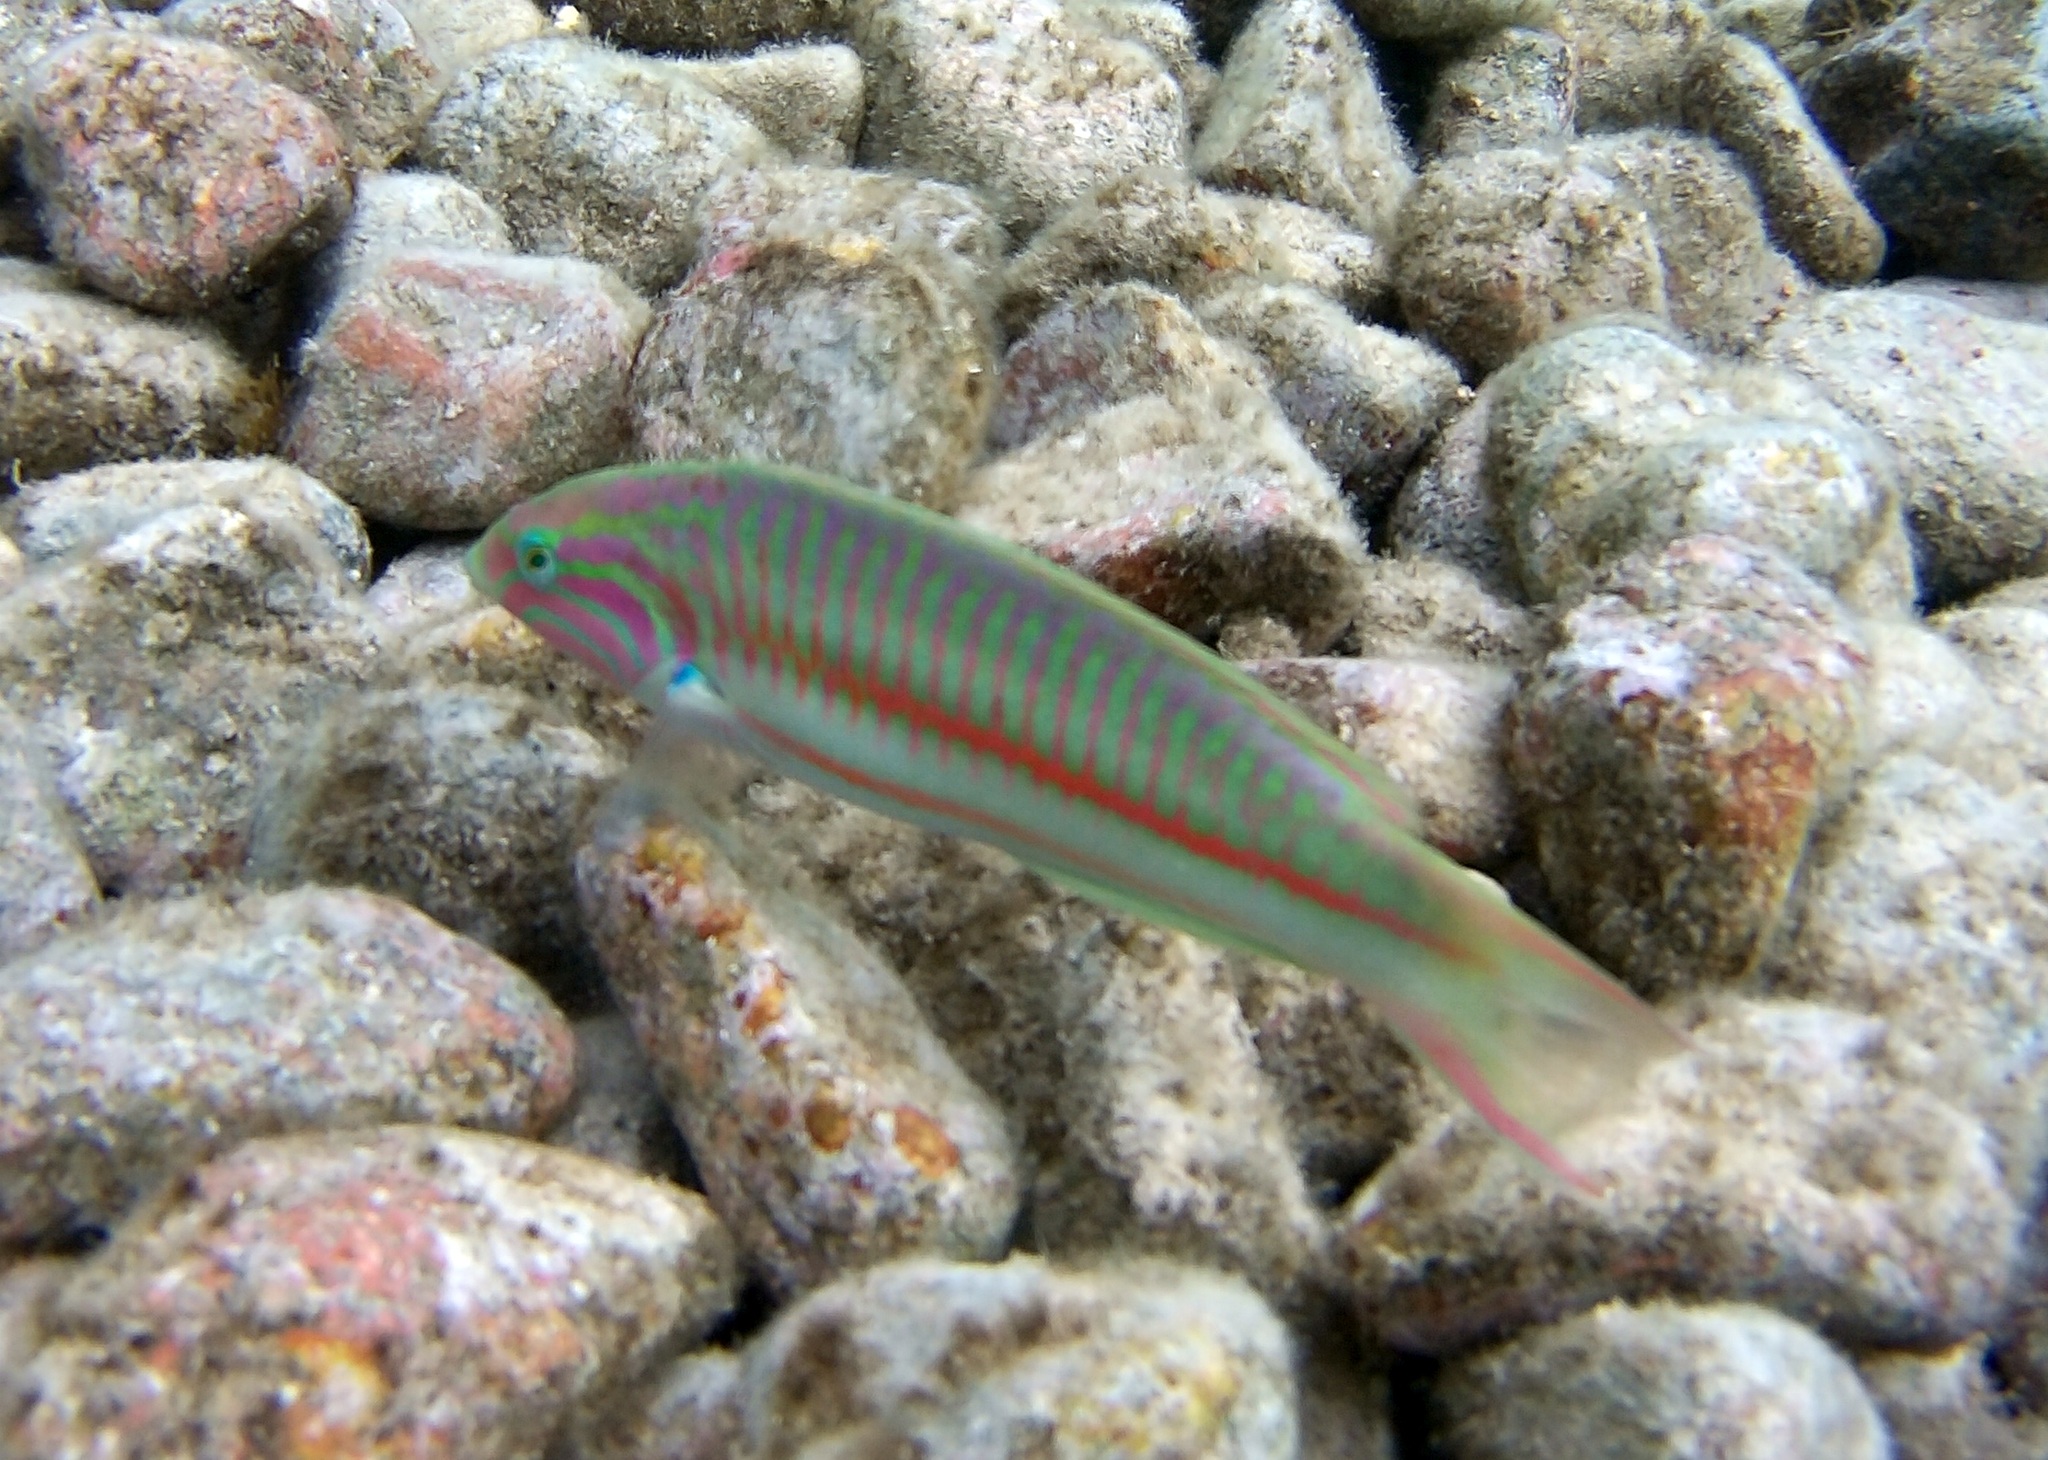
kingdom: Animalia
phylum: Chordata
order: Perciformes
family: Labridae
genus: Thalassoma
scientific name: Thalassoma rueppellii
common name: Klunzinger's wrasse
